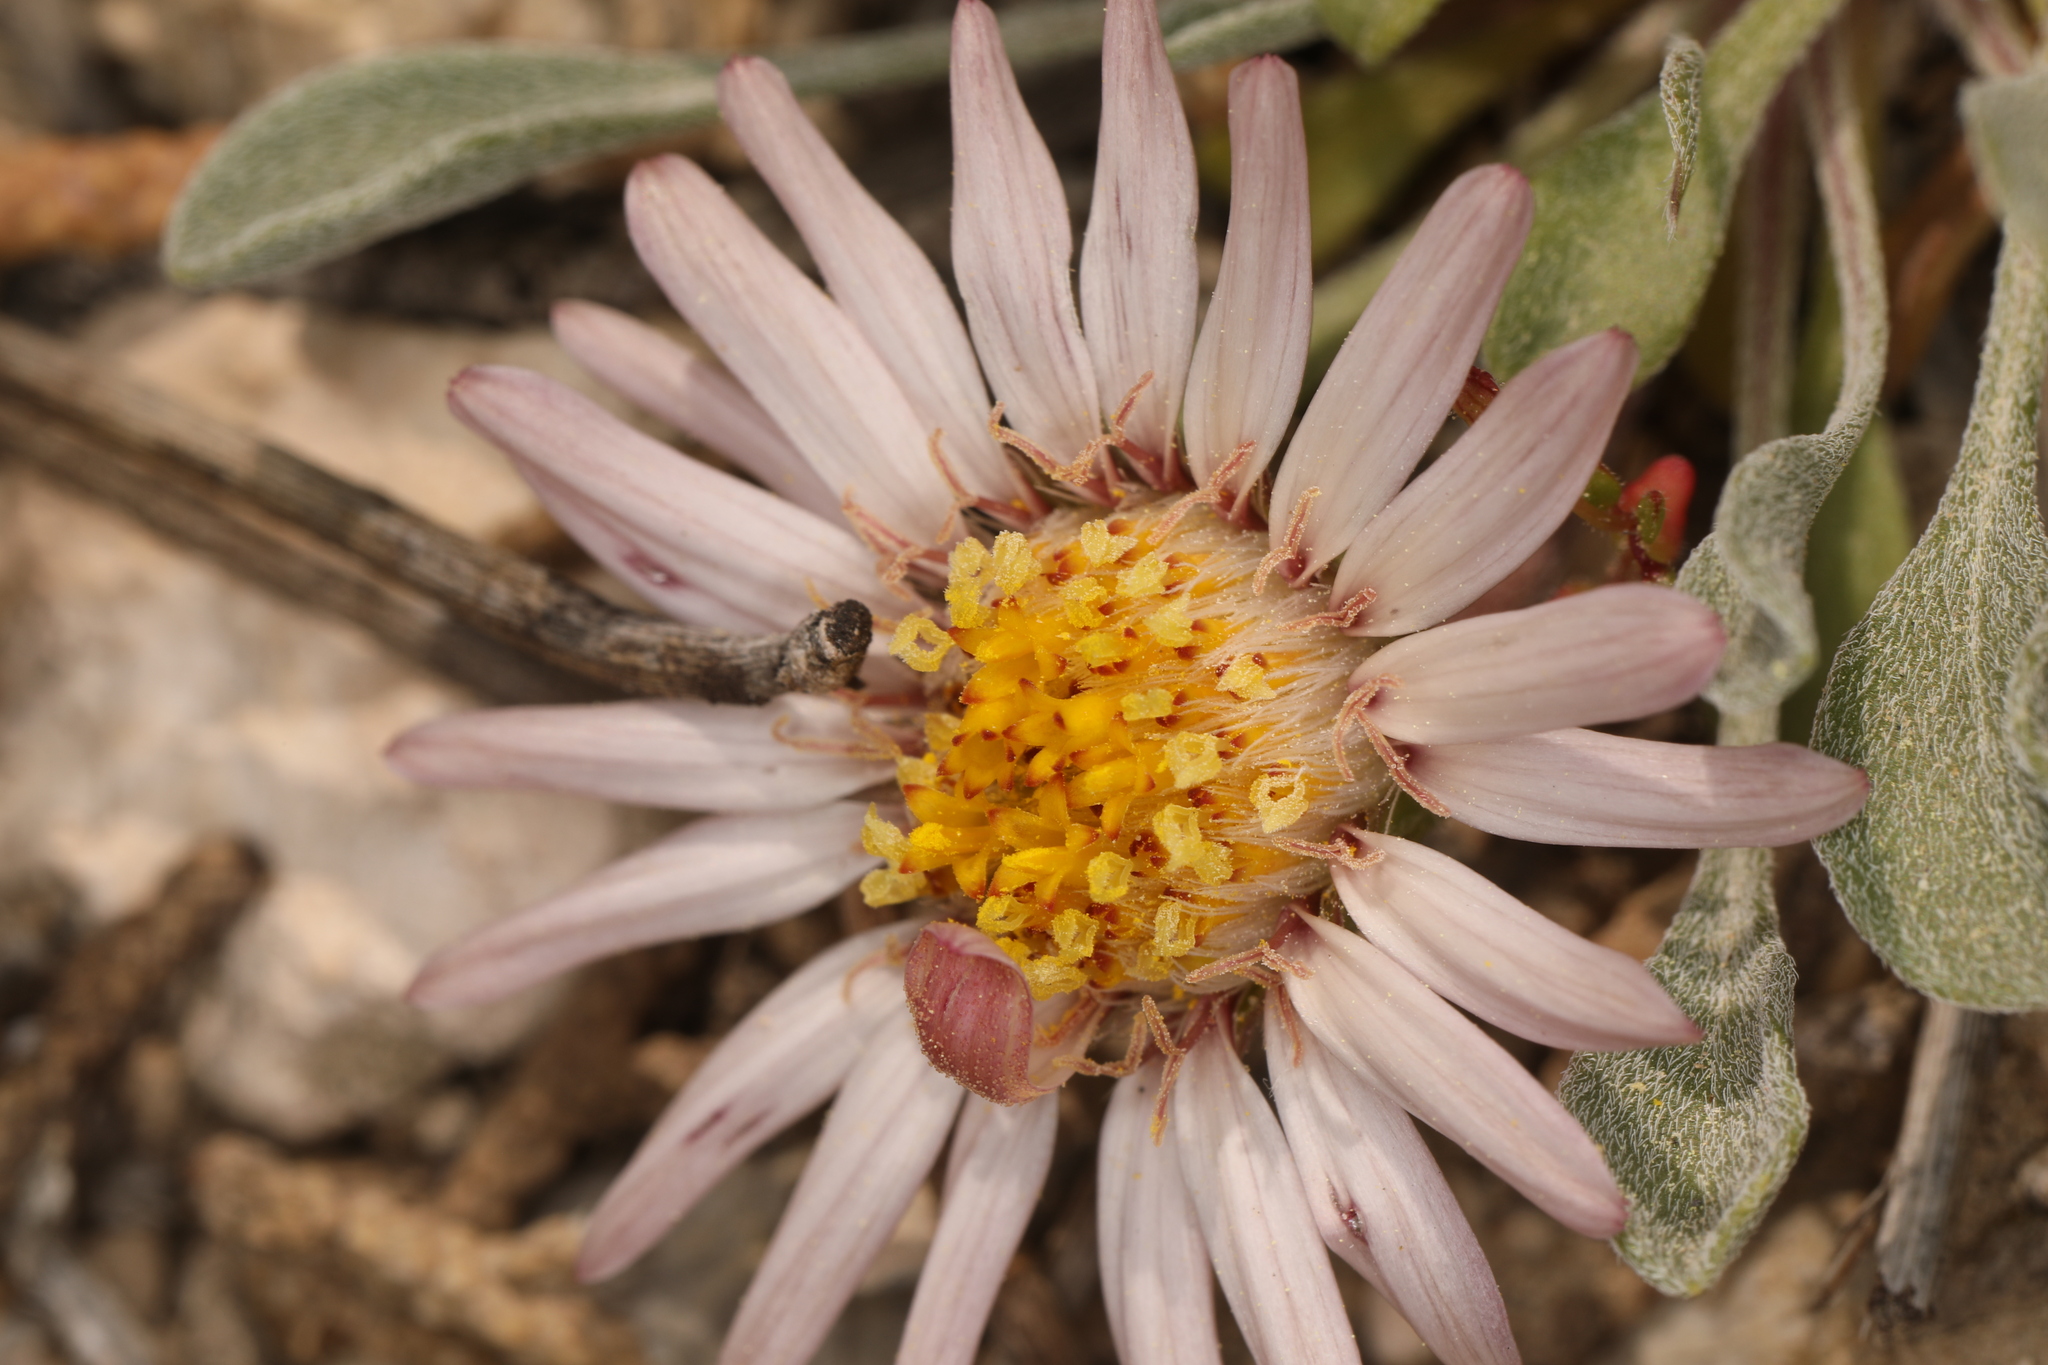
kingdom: Plantae
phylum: Tracheophyta
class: Magnoliopsida
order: Asterales
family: Asteraceae
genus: Townsendia
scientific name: Townsendia scapigera
